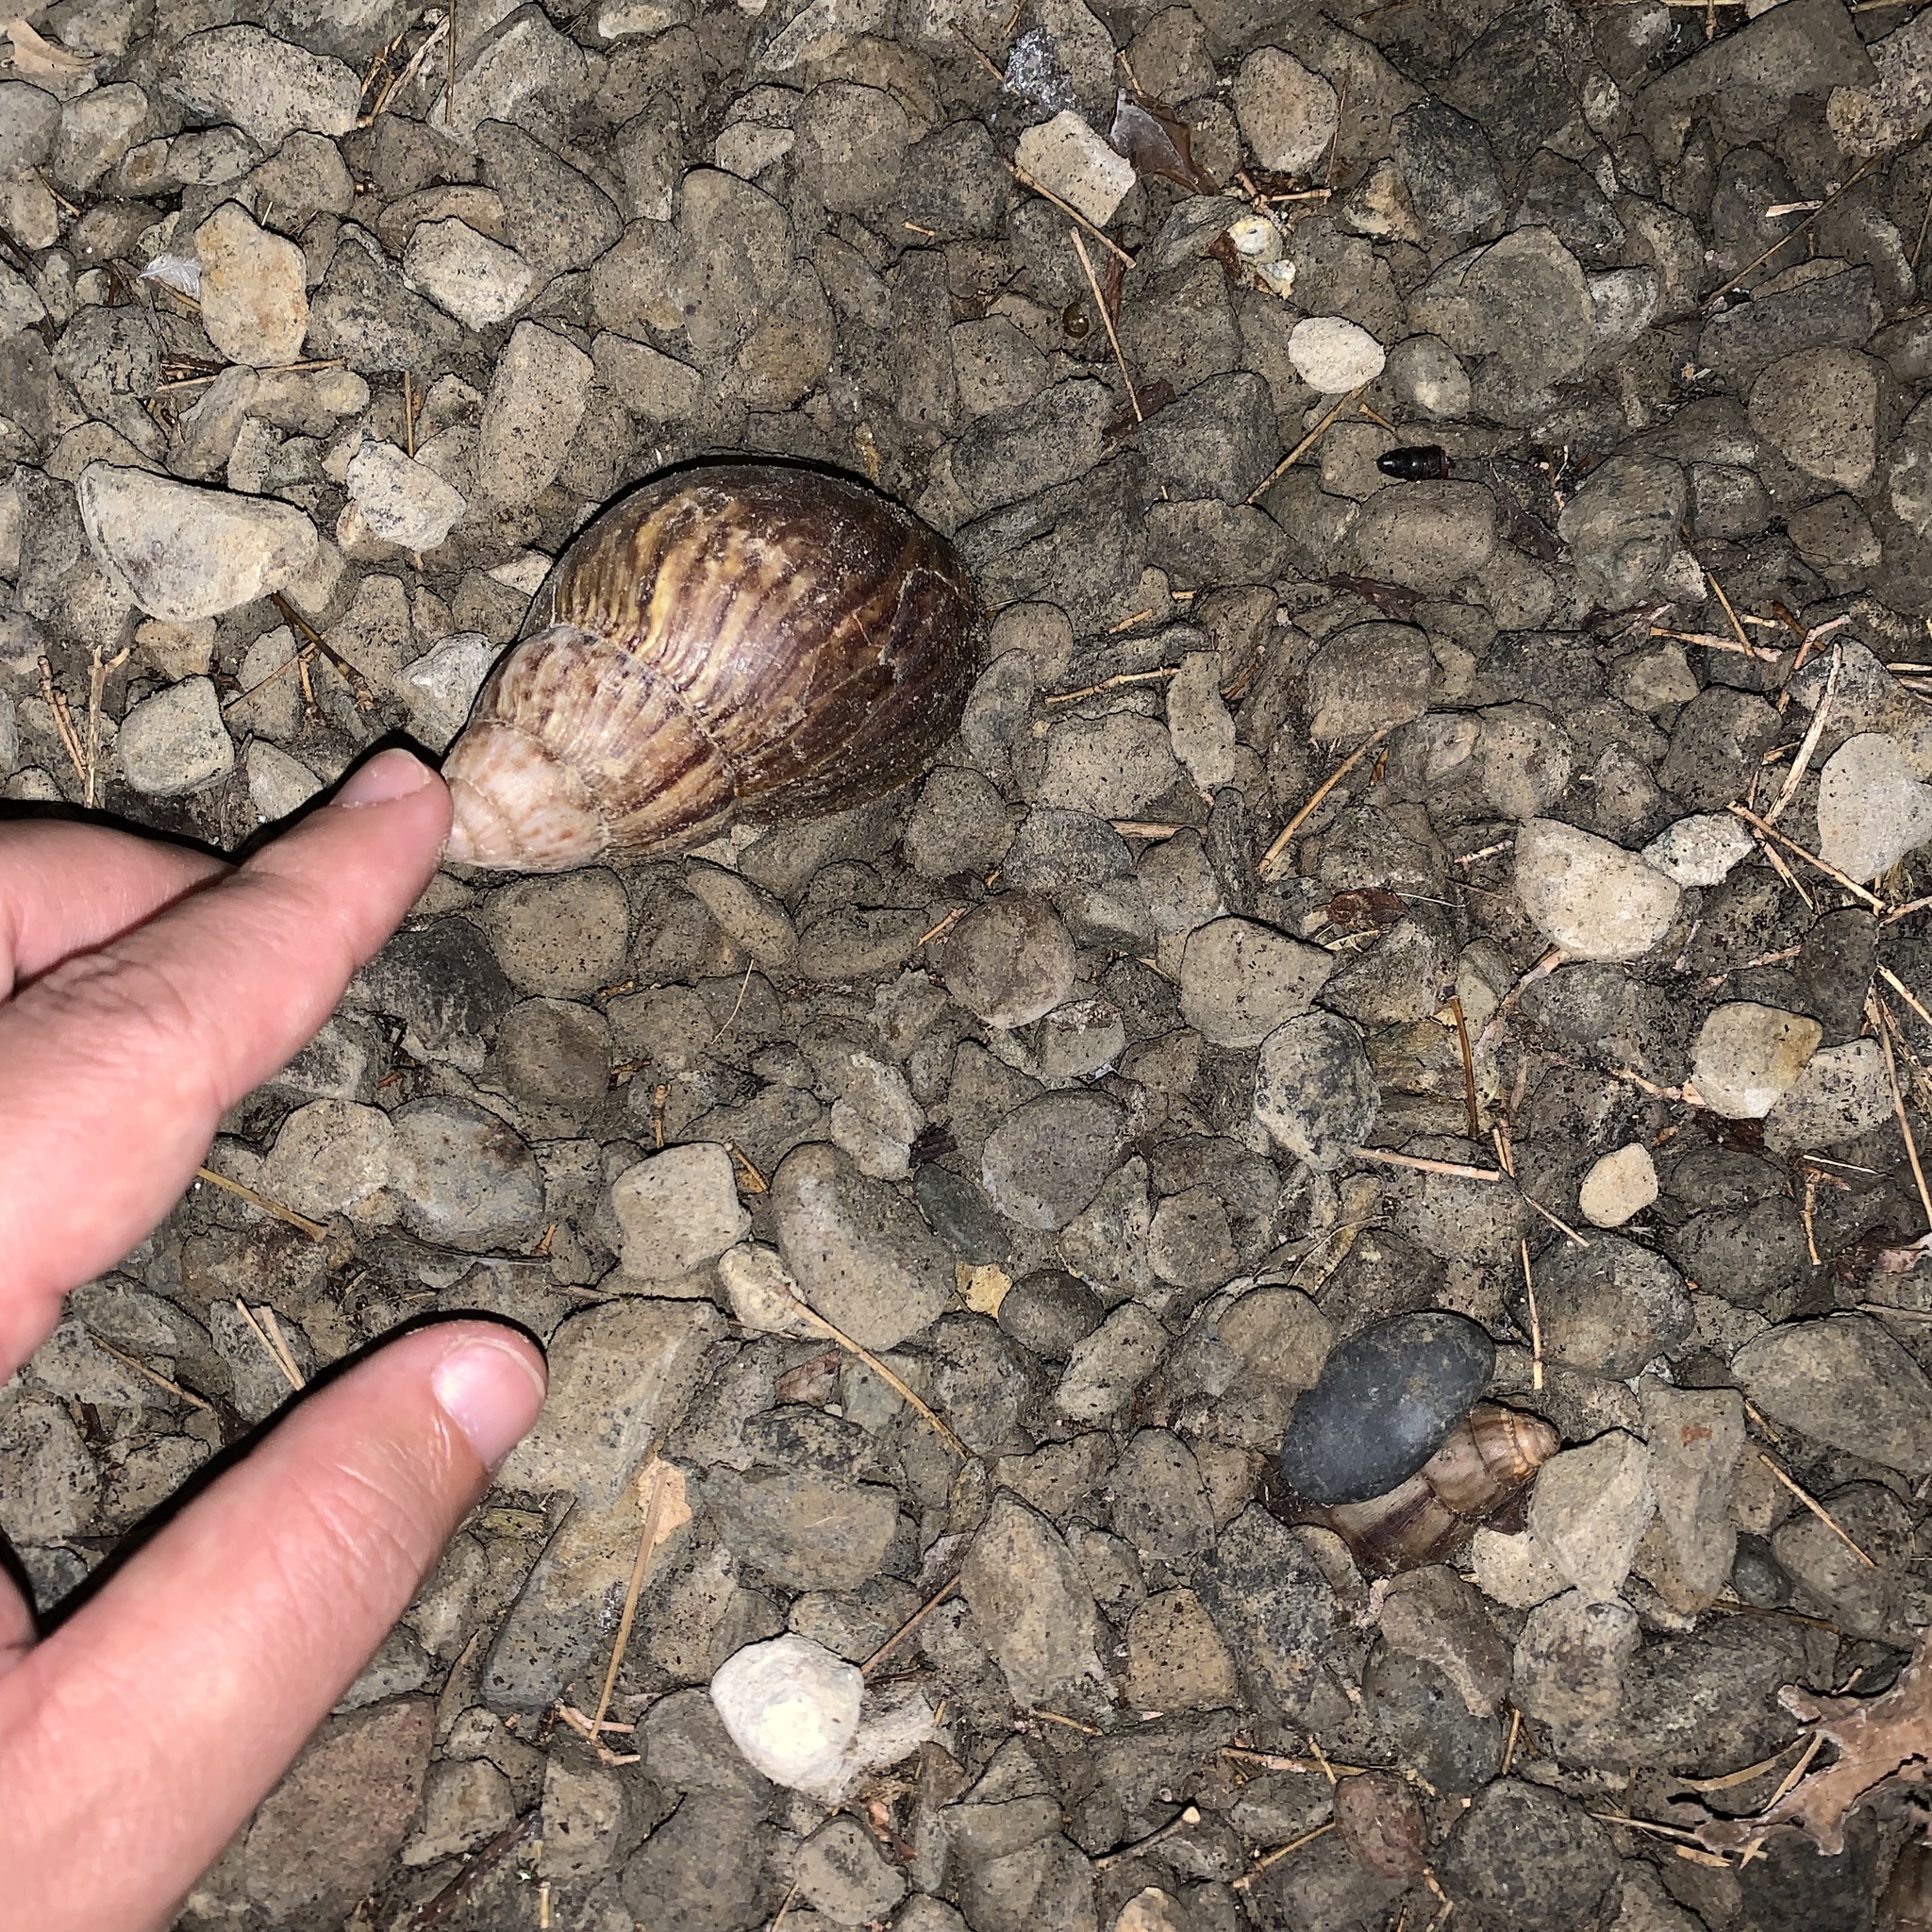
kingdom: Animalia
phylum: Mollusca
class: Gastropoda
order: Stylommatophora
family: Achatinidae
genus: Lissachatina
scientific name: Lissachatina fulica
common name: Giant african snail
